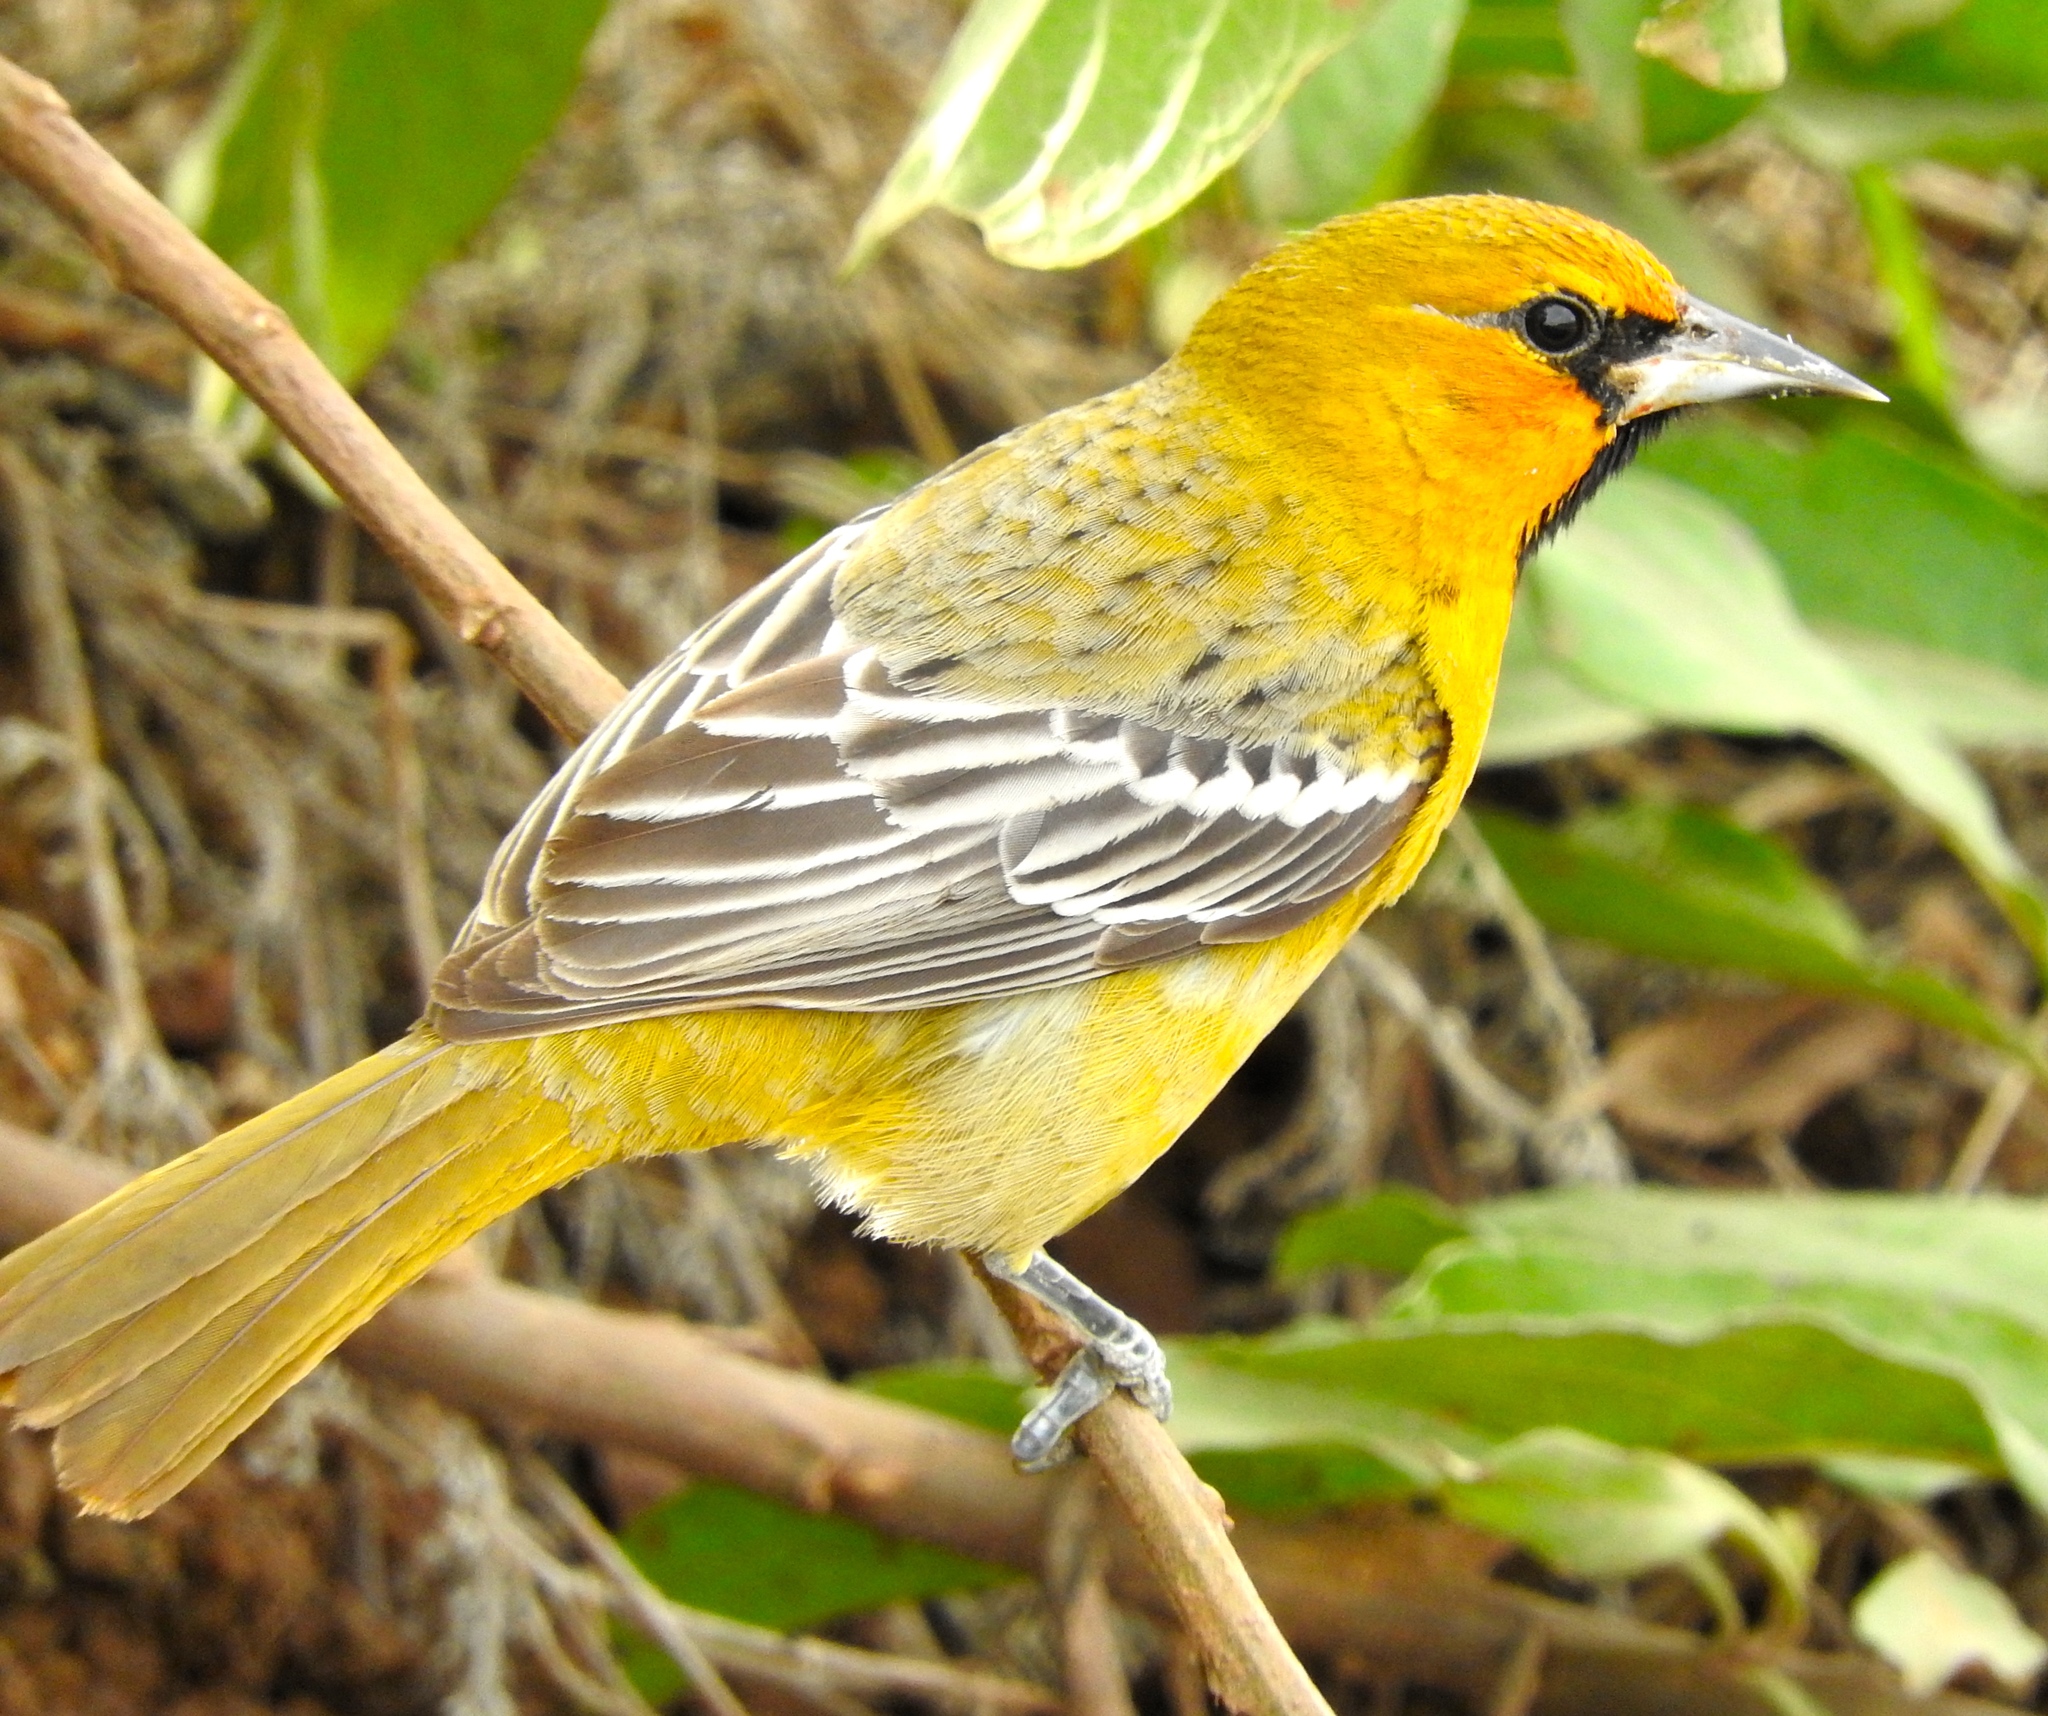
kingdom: Animalia
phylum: Chordata
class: Aves
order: Passeriformes
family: Icteridae
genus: Icterus
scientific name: Icterus pustulatus
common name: Streak-backed oriole
